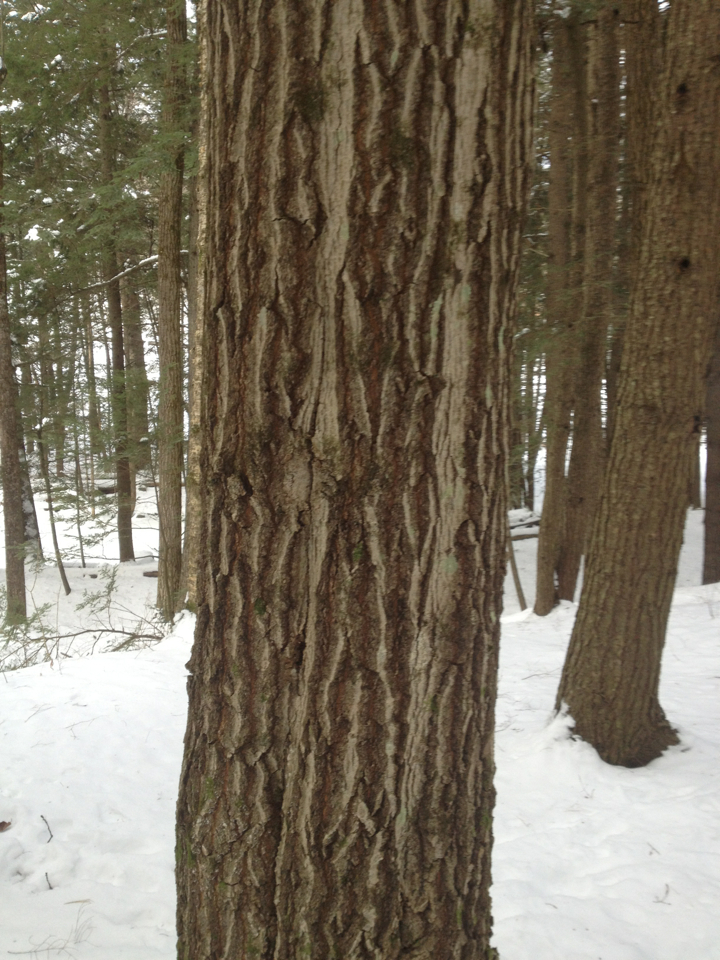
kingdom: Plantae
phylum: Tracheophyta
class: Magnoliopsida
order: Fagales
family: Fagaceae
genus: Quercus
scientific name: Quercus rubra
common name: Red oak
